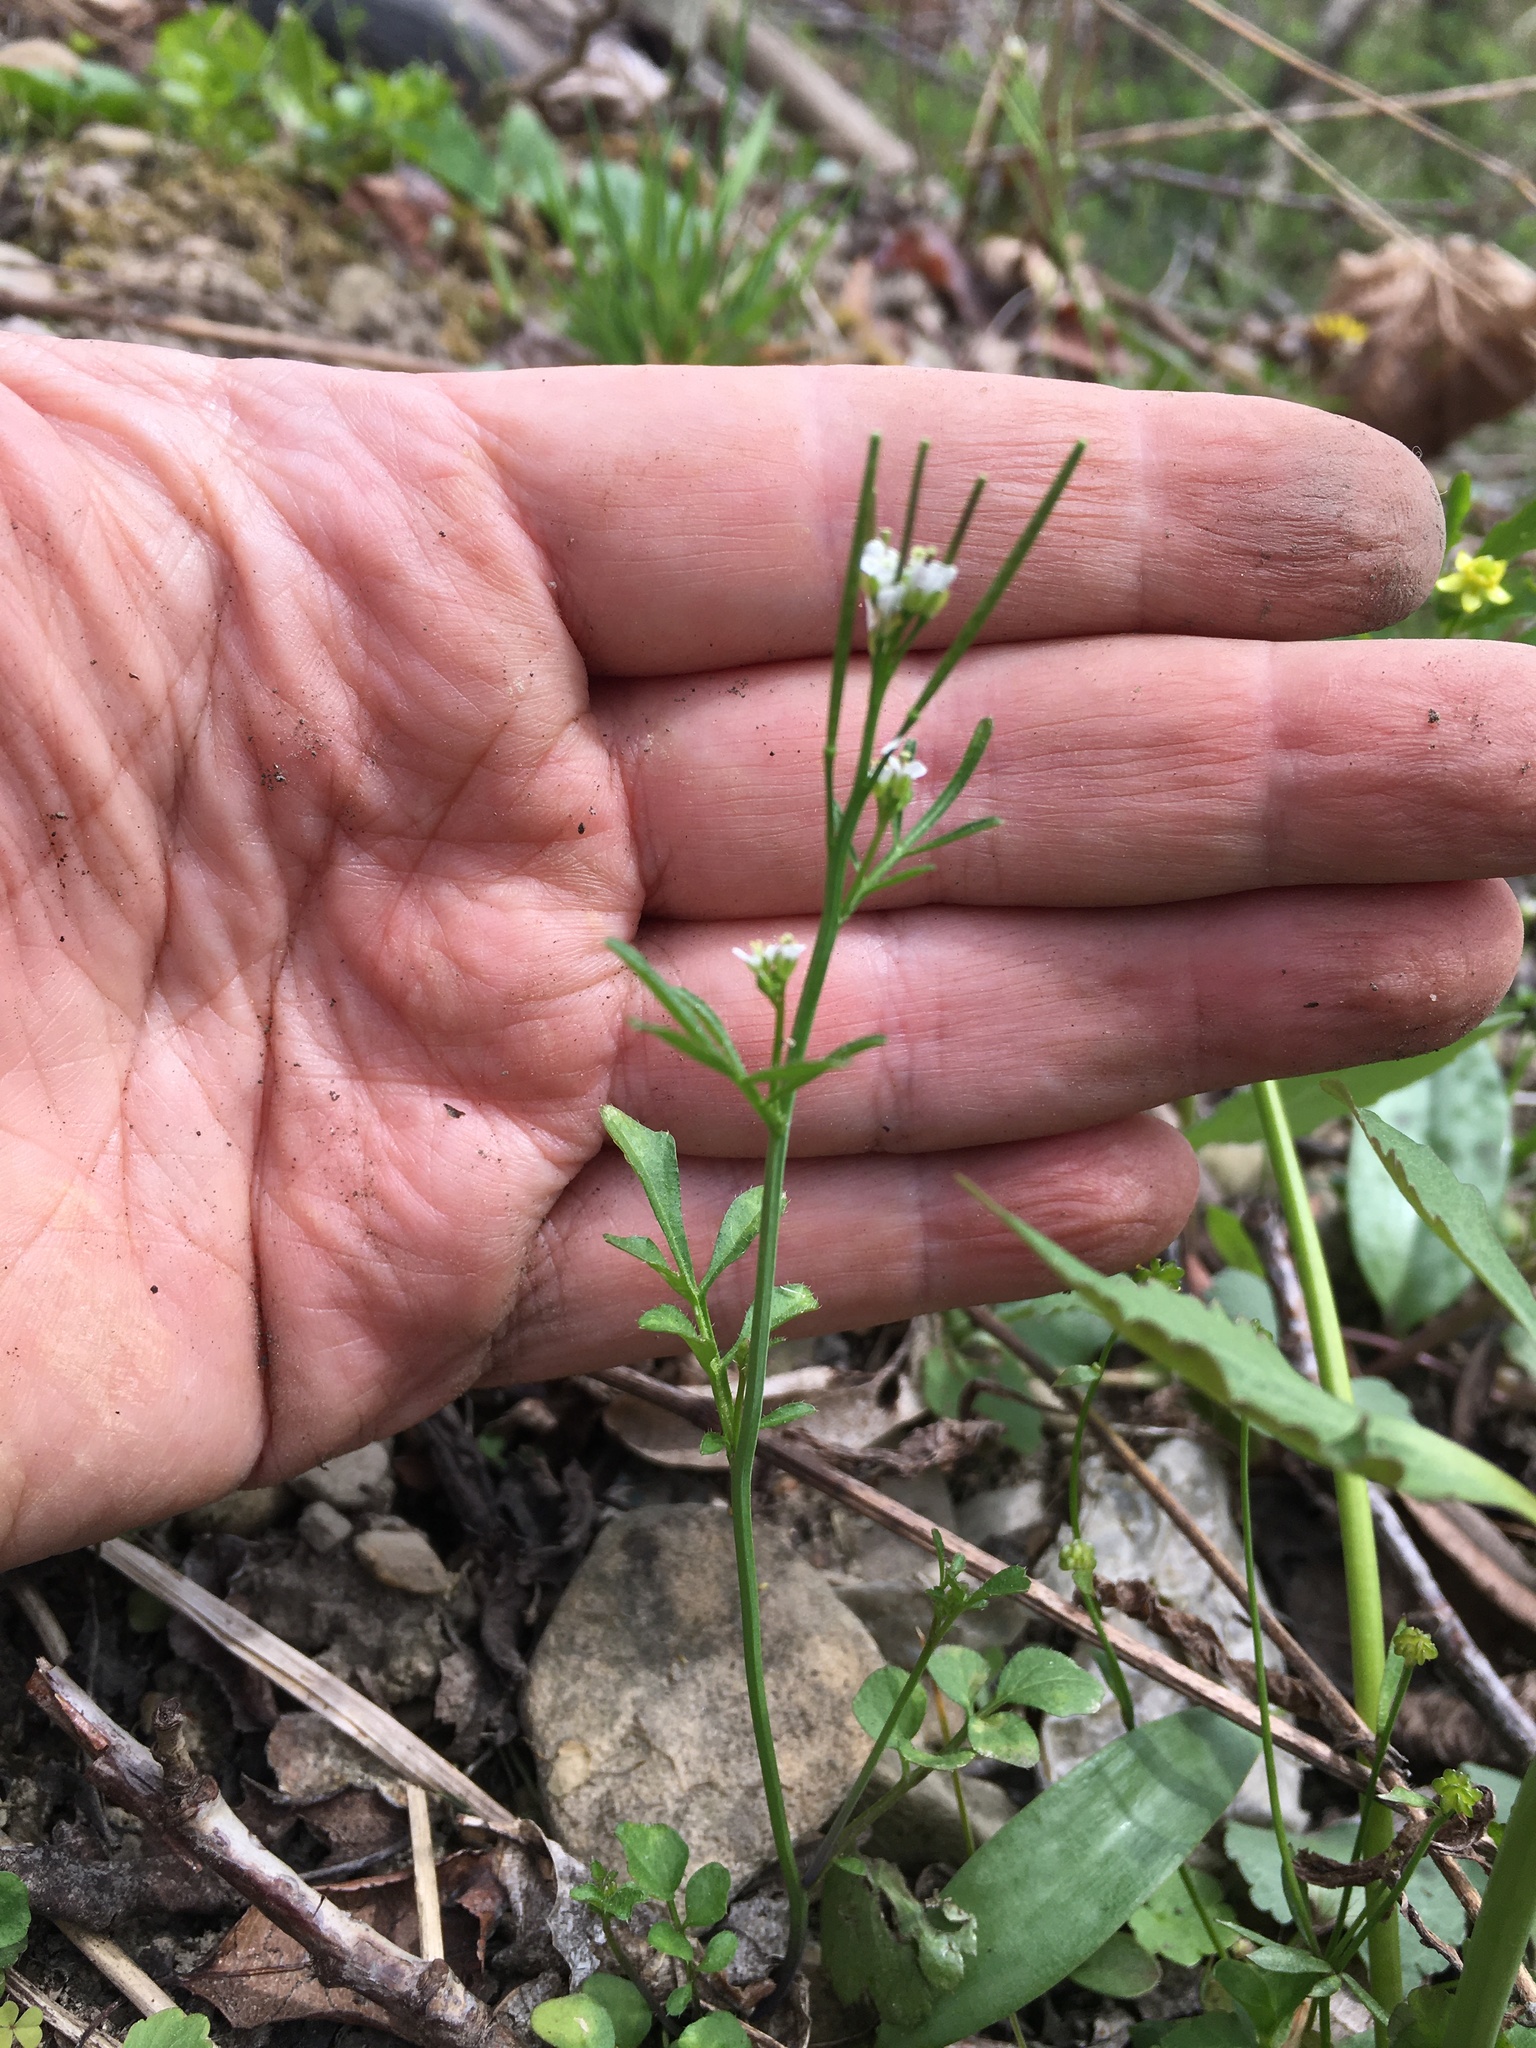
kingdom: Plantae
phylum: Tracheophyta
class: Magnoliopsida
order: Brassicales
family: Brassicaceae
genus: Cardamine
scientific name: Cardamine hirsuta
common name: Hairy bittercress
